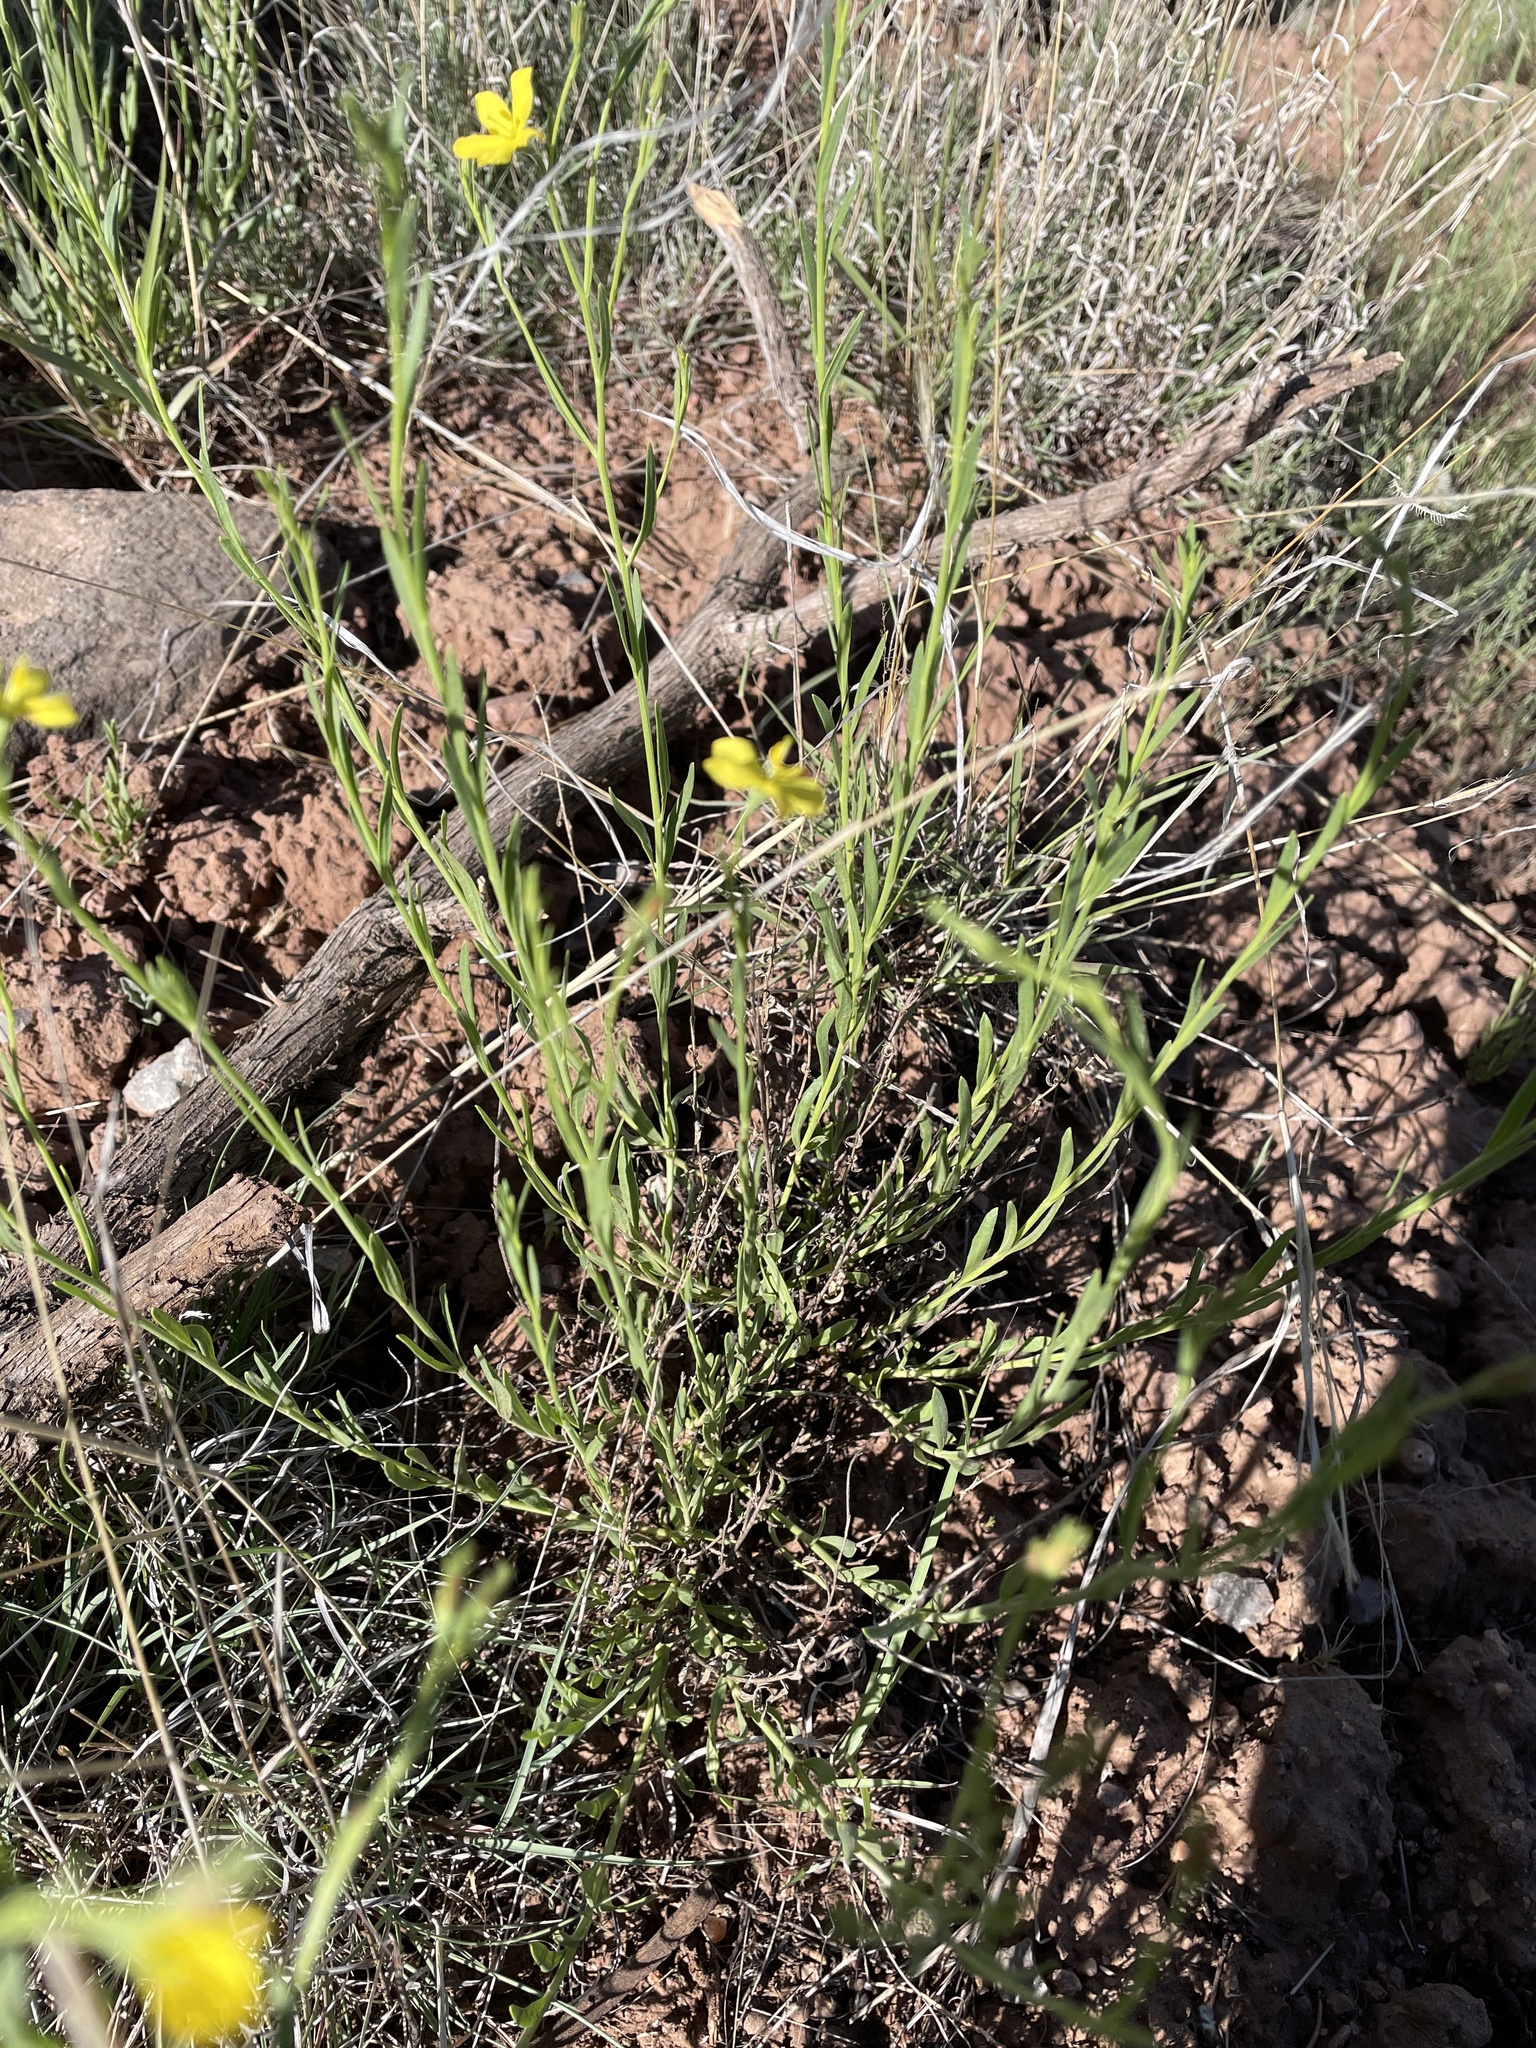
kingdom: Plantae
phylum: Tracheophyta
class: Magnoliopsida
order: Lamiales
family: Oleaceae
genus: Menodora
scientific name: Menodora scabra
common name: Rough menodora
